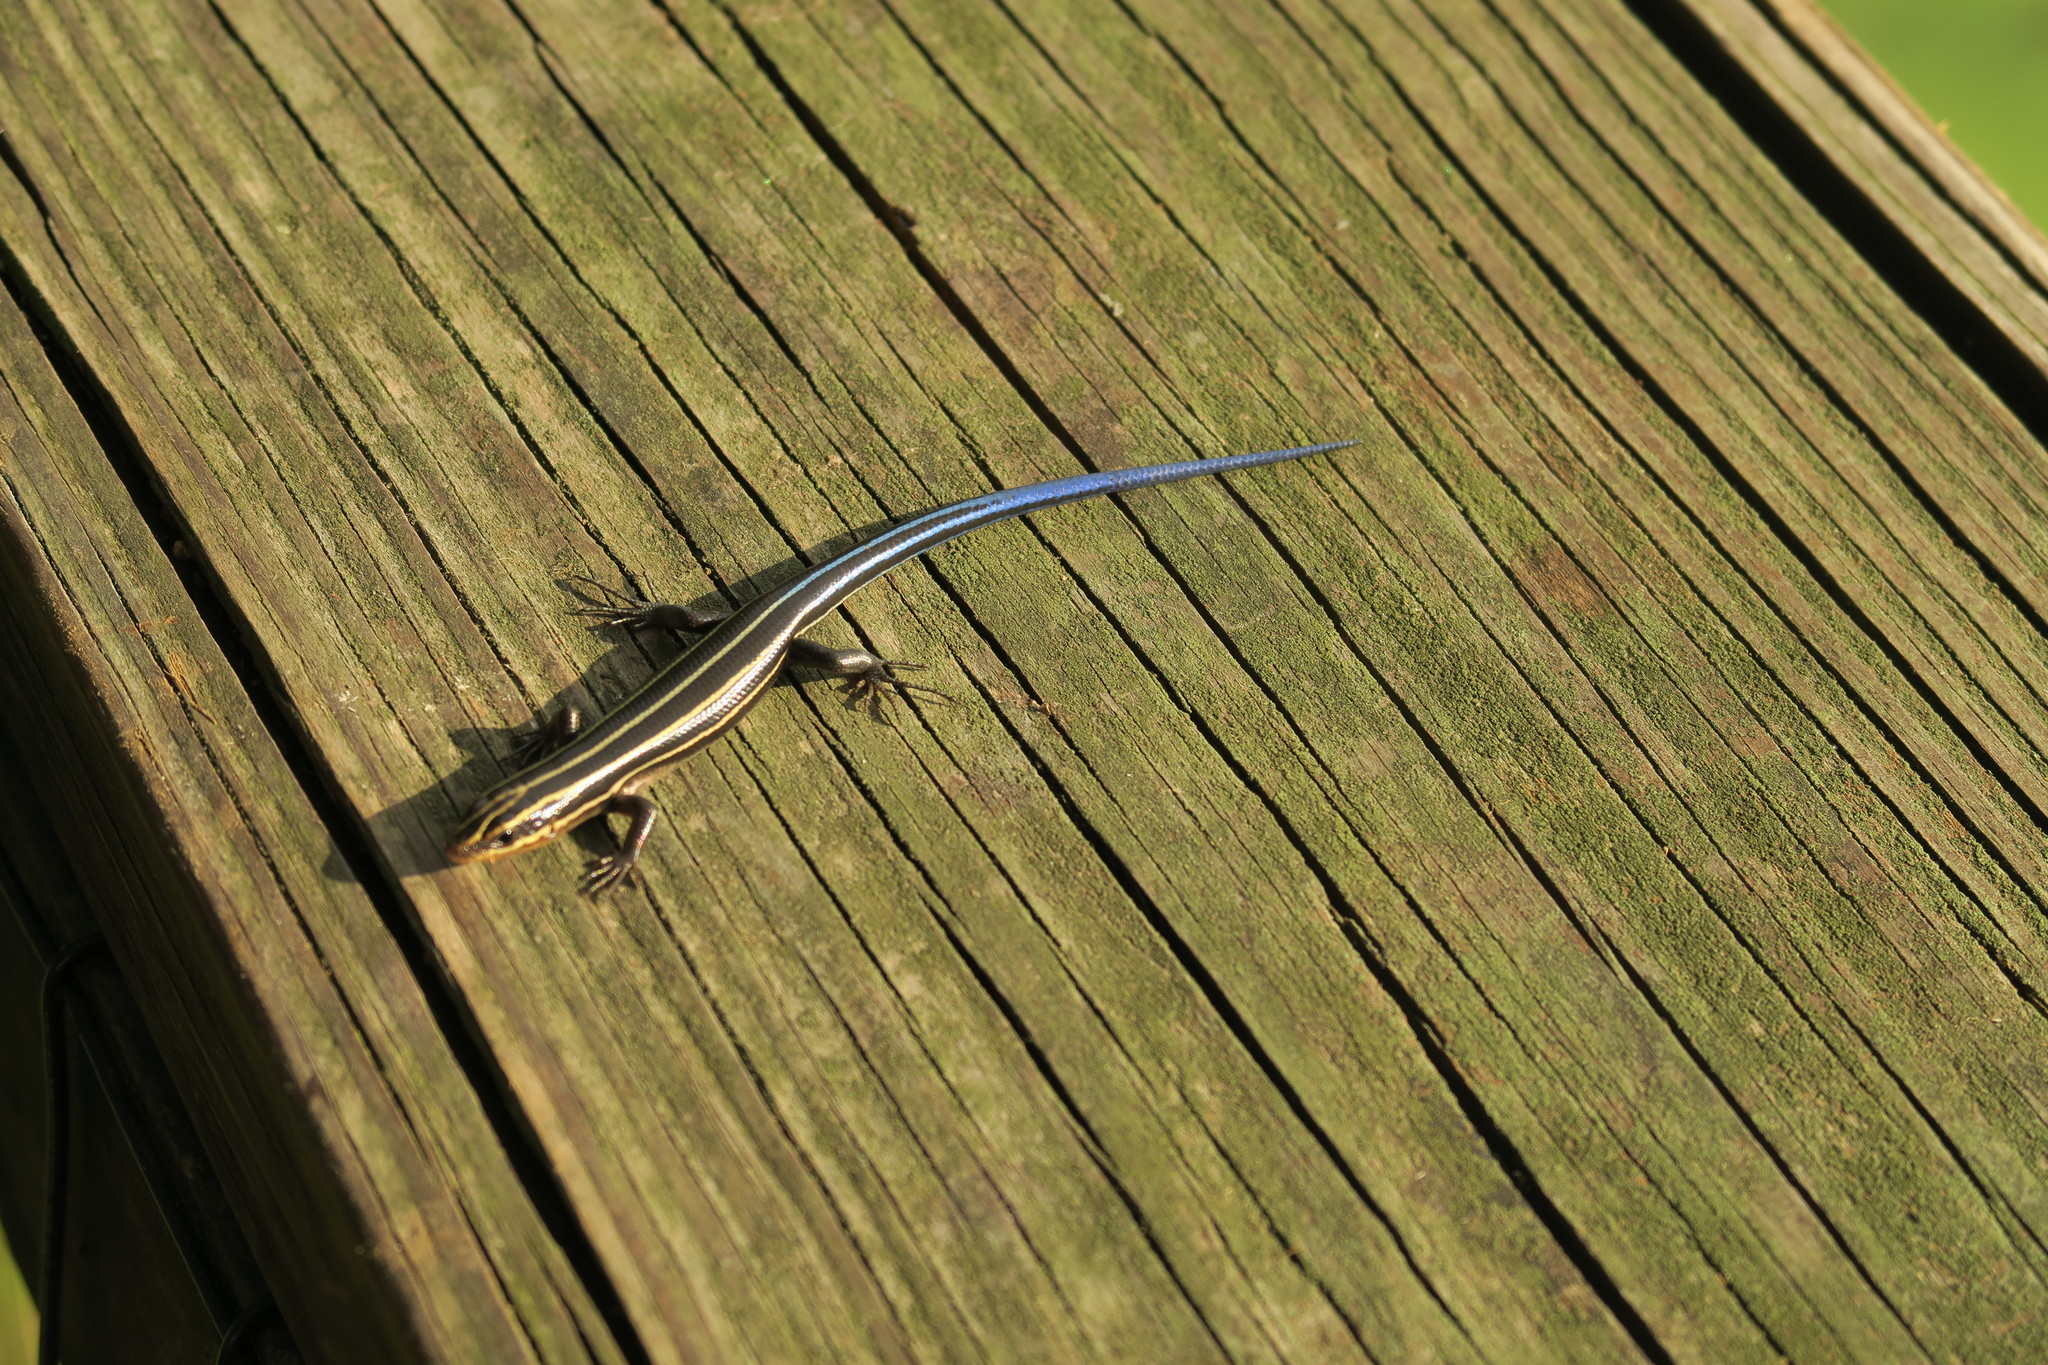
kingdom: Animalia
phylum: Chordata
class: Squamata
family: Scincidae
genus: Plestiodon
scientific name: Plestiodon fasciatus
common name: Five-lined skink
